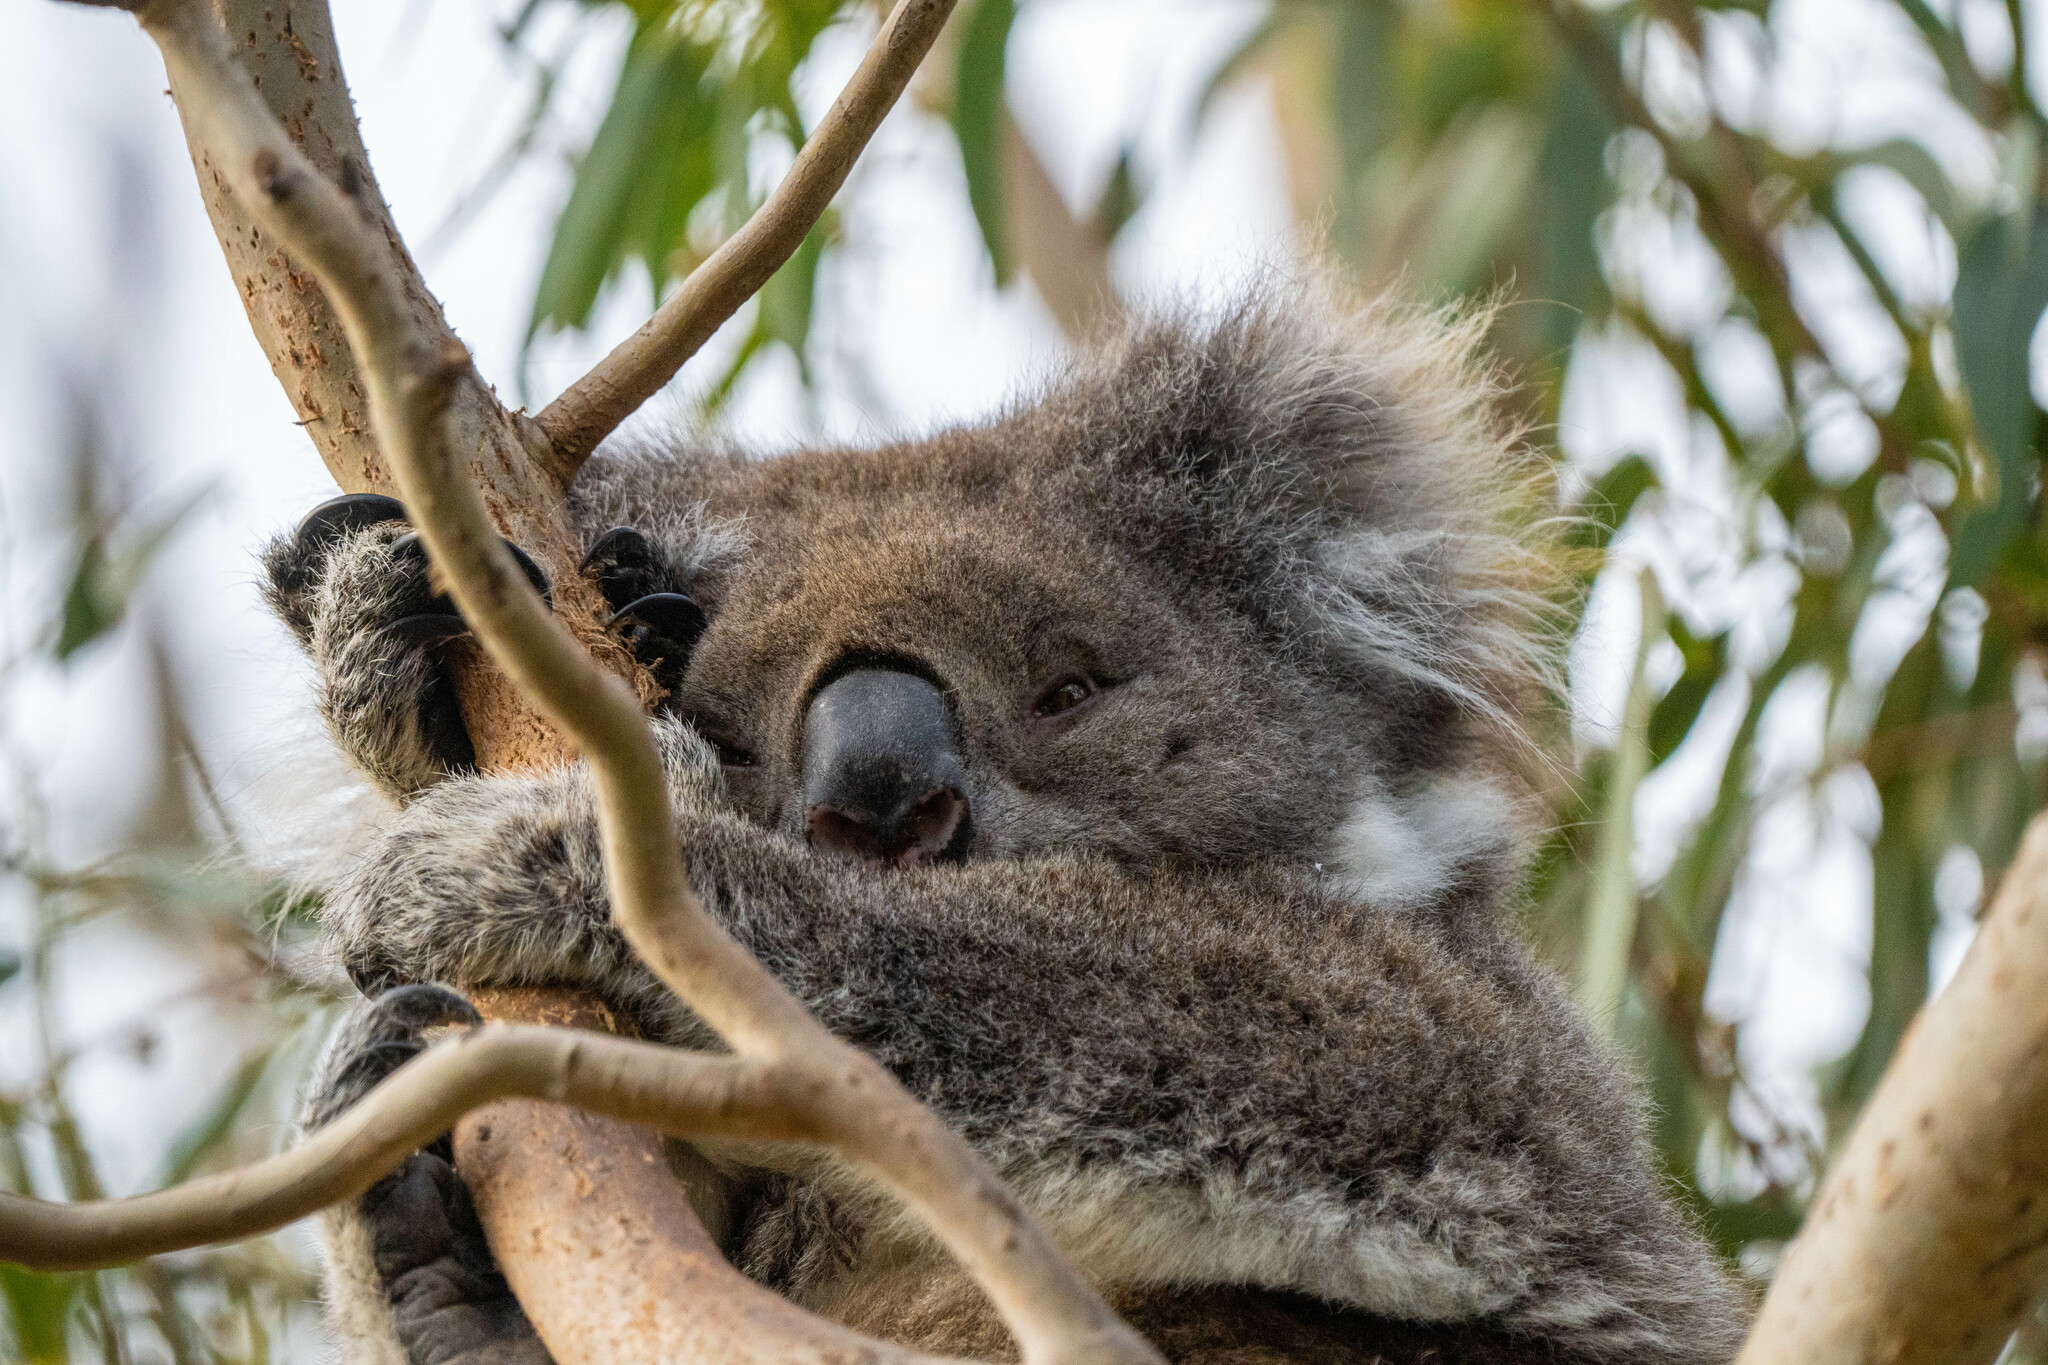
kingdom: Animalia
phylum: Chordata
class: Mammalia
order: Diprotodontia
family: Phascolarctidae
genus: Phascolarctos
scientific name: Phascolarctos cinereus
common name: Koala
